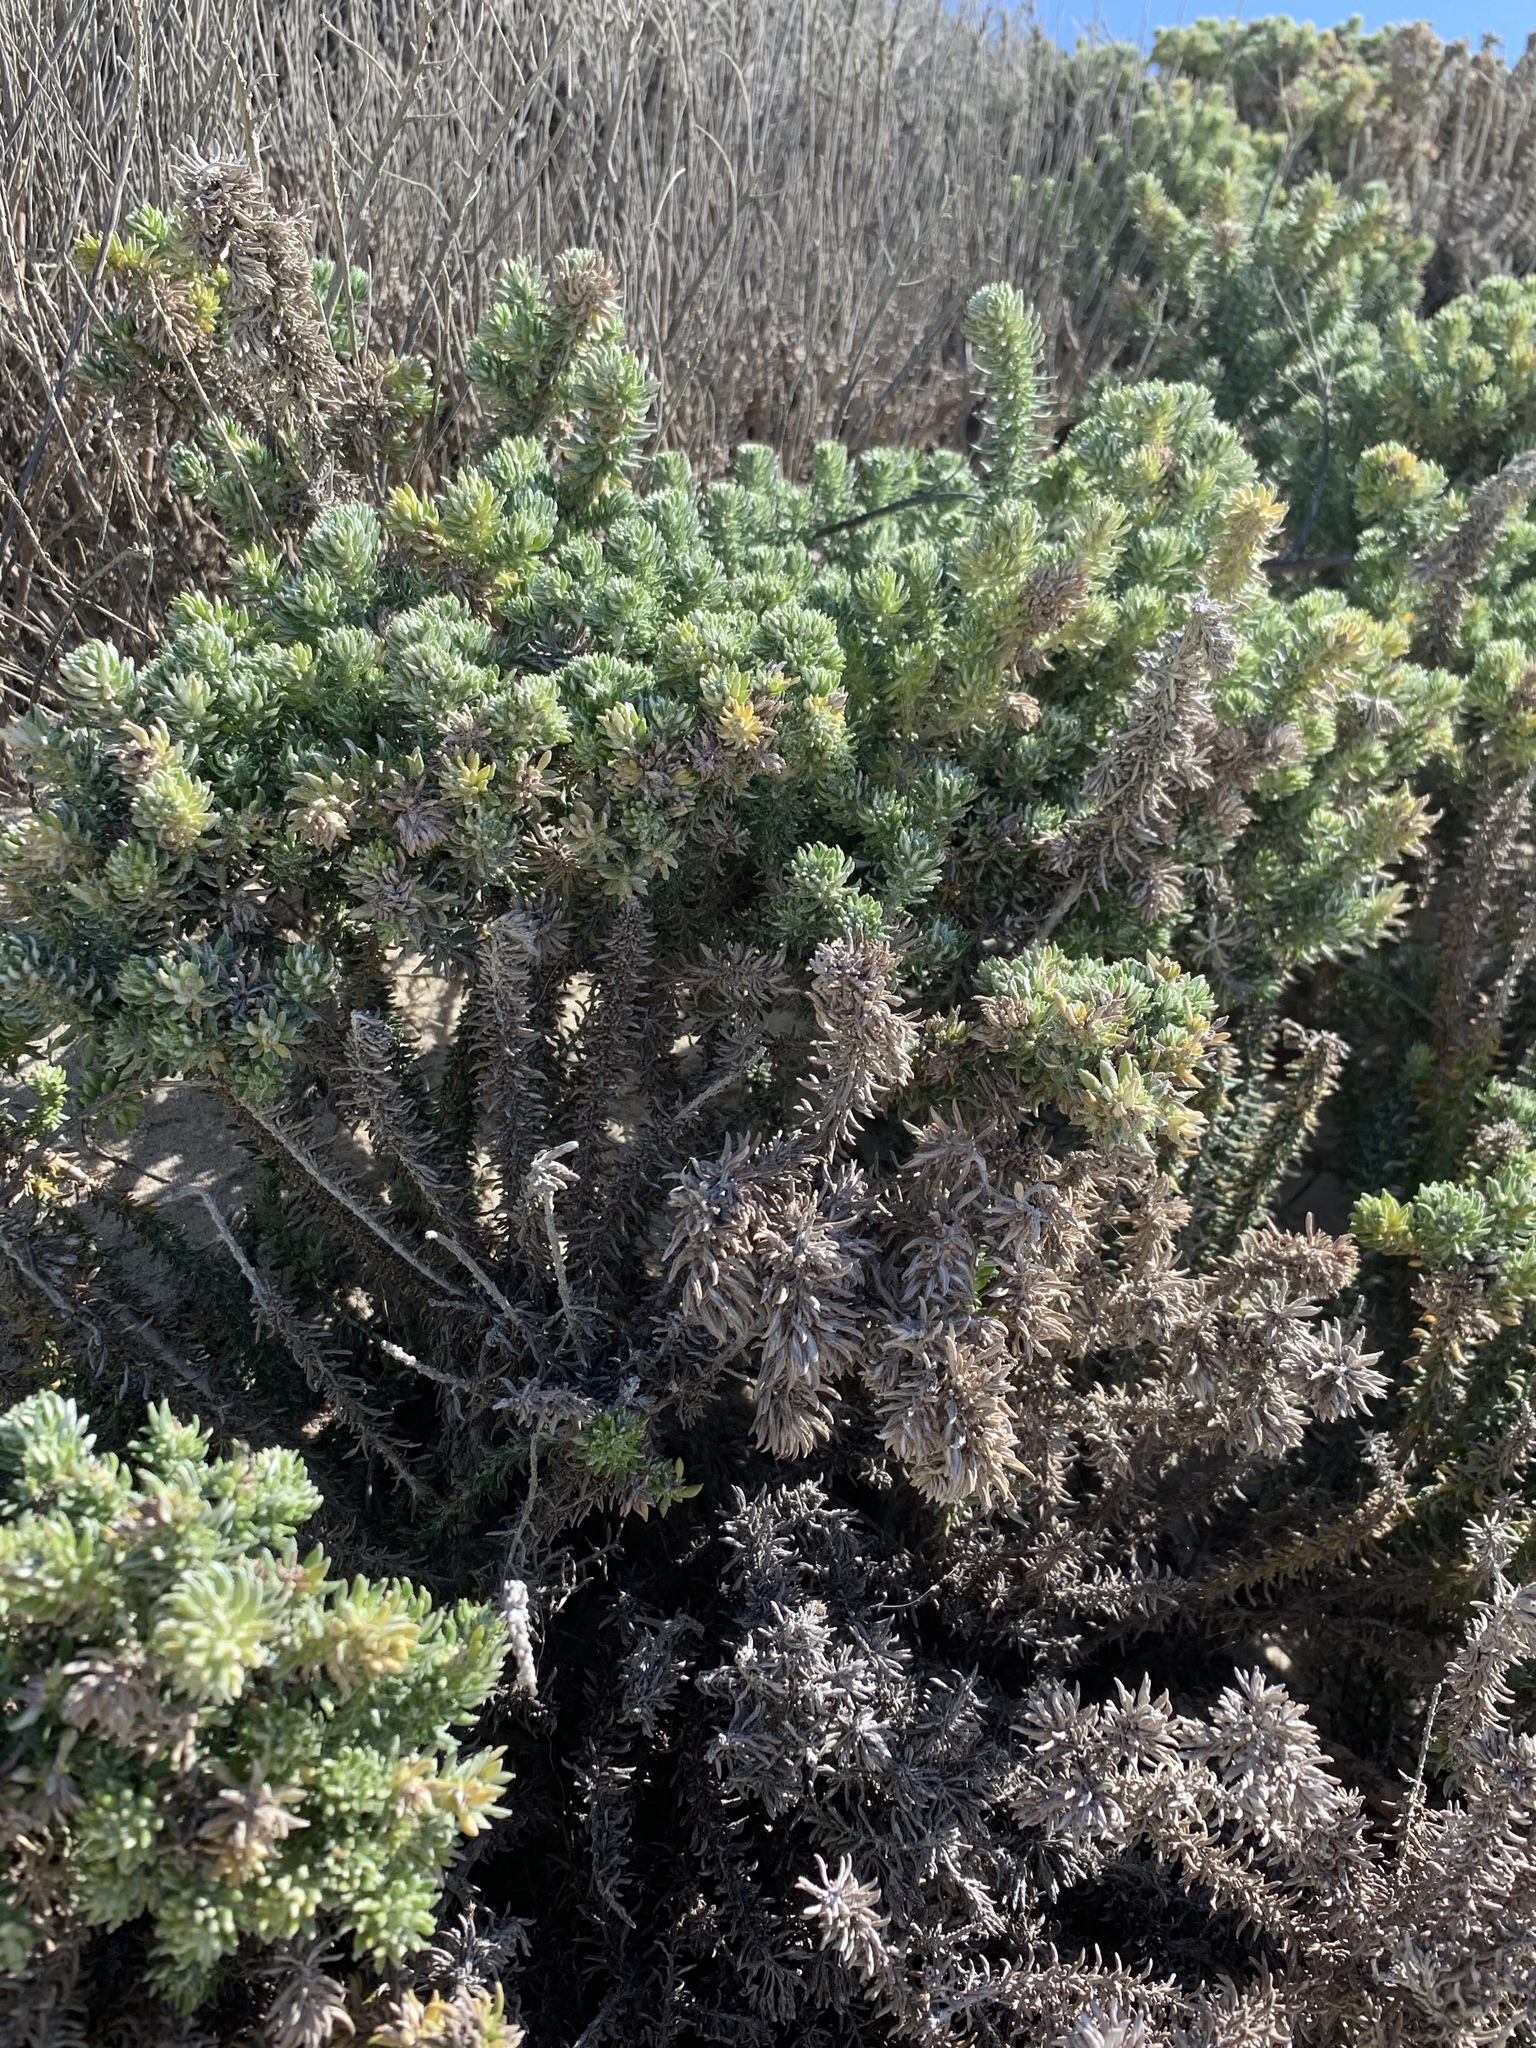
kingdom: Plantae
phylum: Tracheophyta
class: Magnoliopsida
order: Asterales
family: Asteraceae
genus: Metalasia
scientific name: Metalasia muricata
